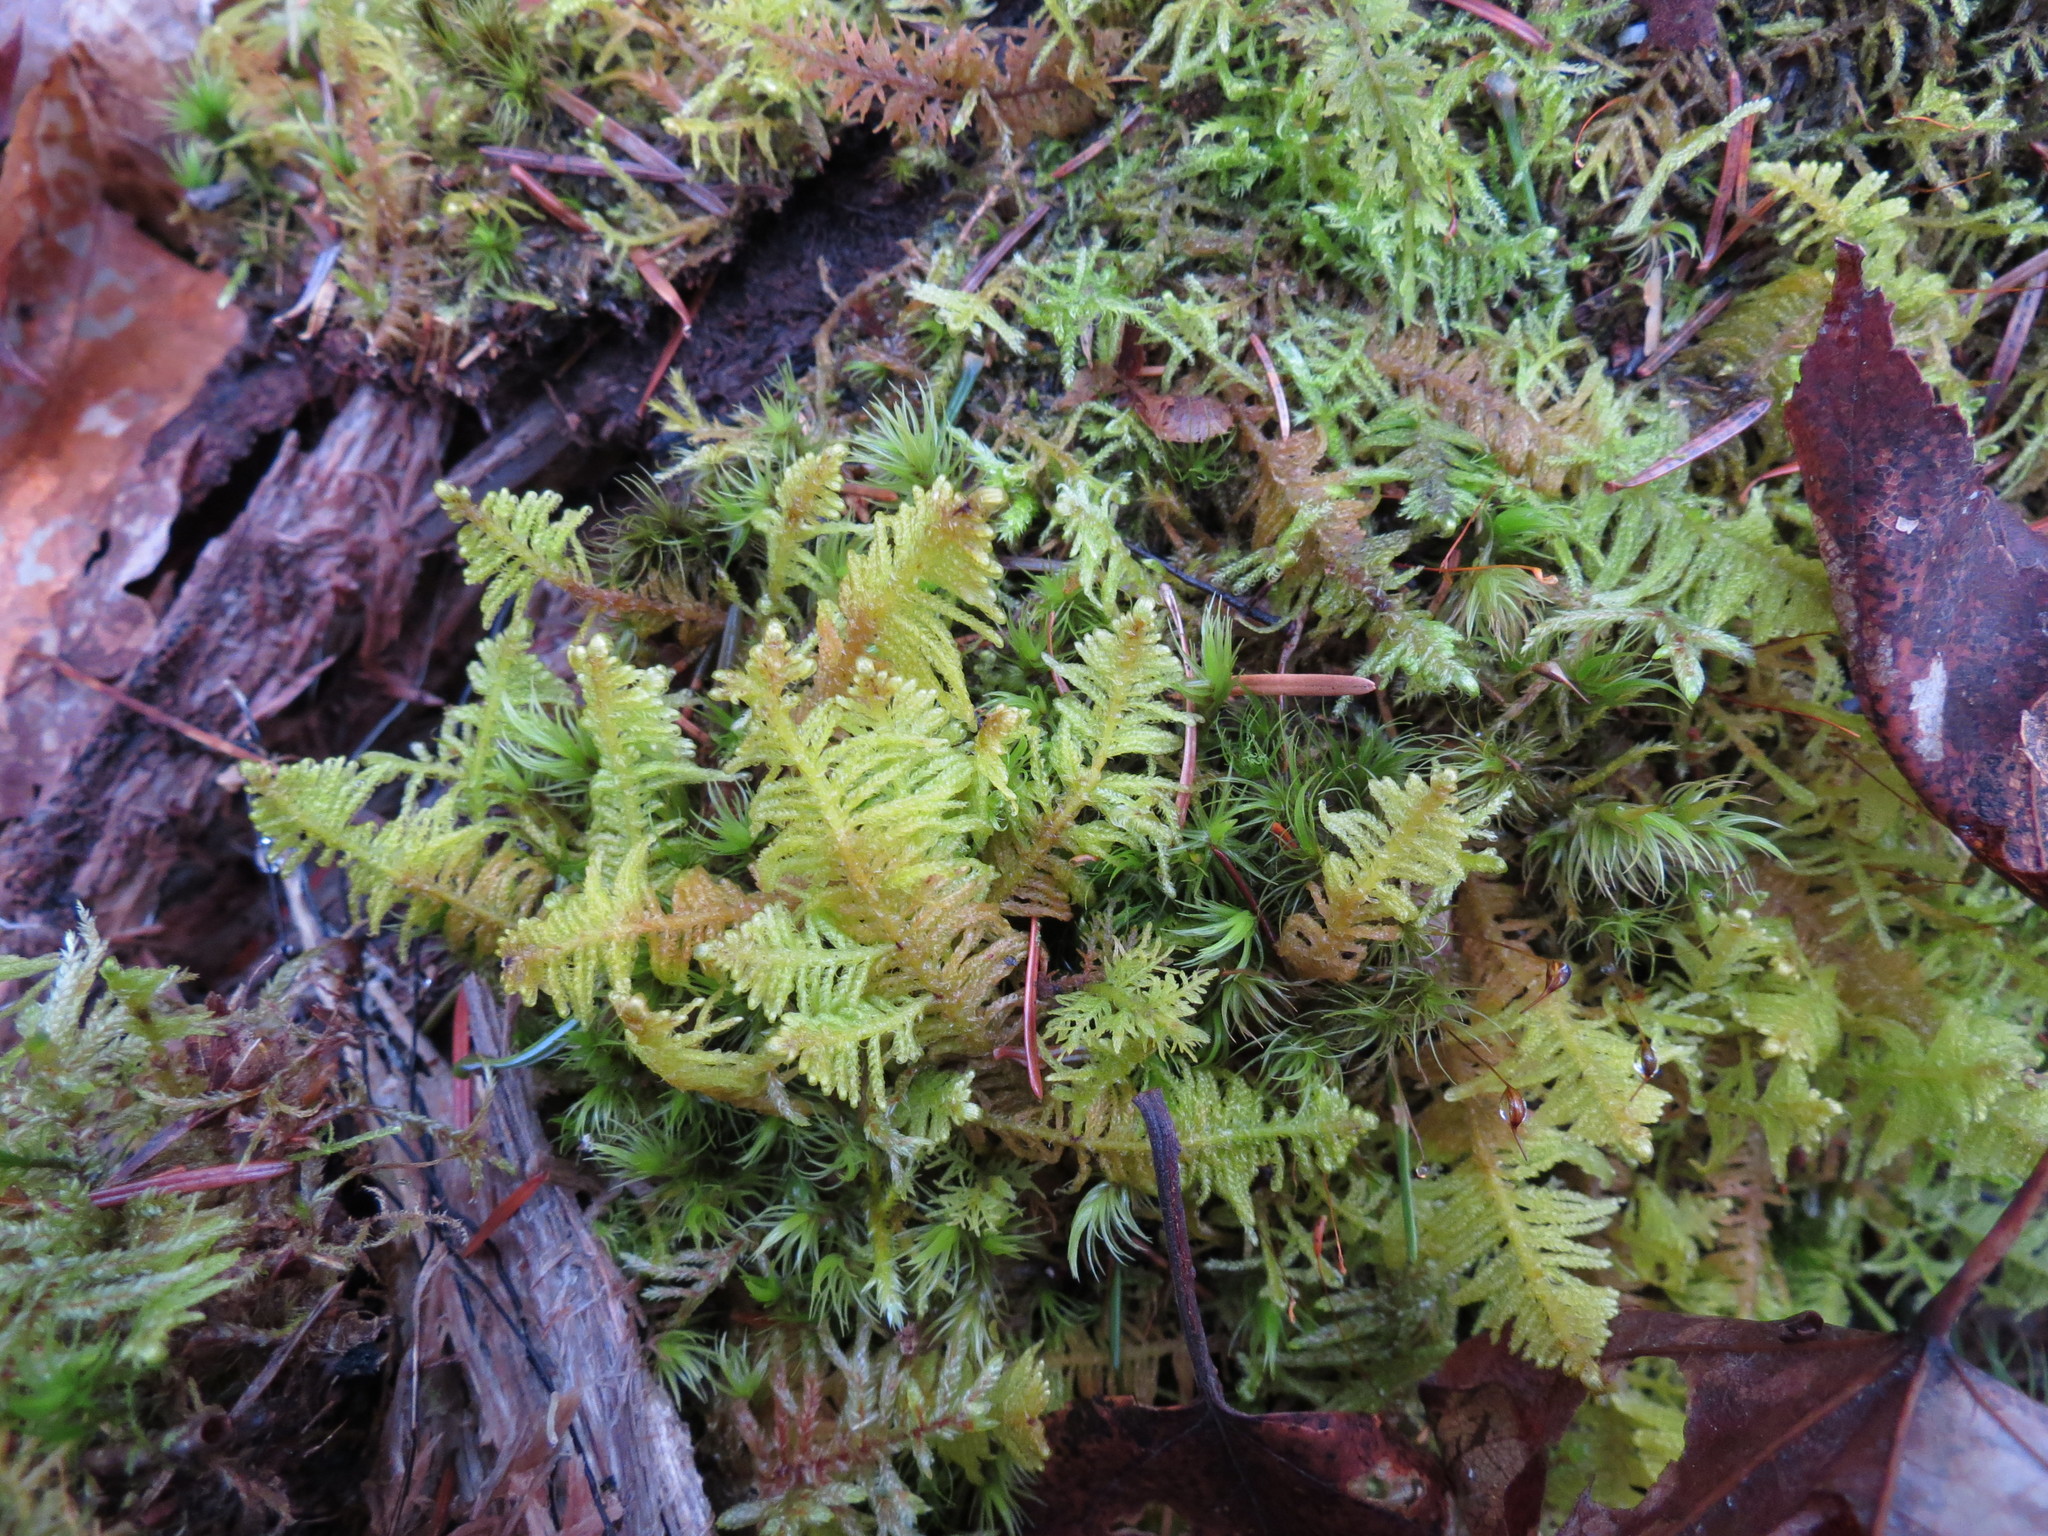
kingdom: Plantae
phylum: Bryophyta
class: Bryopsida
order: Hypnales
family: Pylaisiaceae
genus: Ptilium
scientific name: Ptilium crista-castrensis
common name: Knight's plume moss
